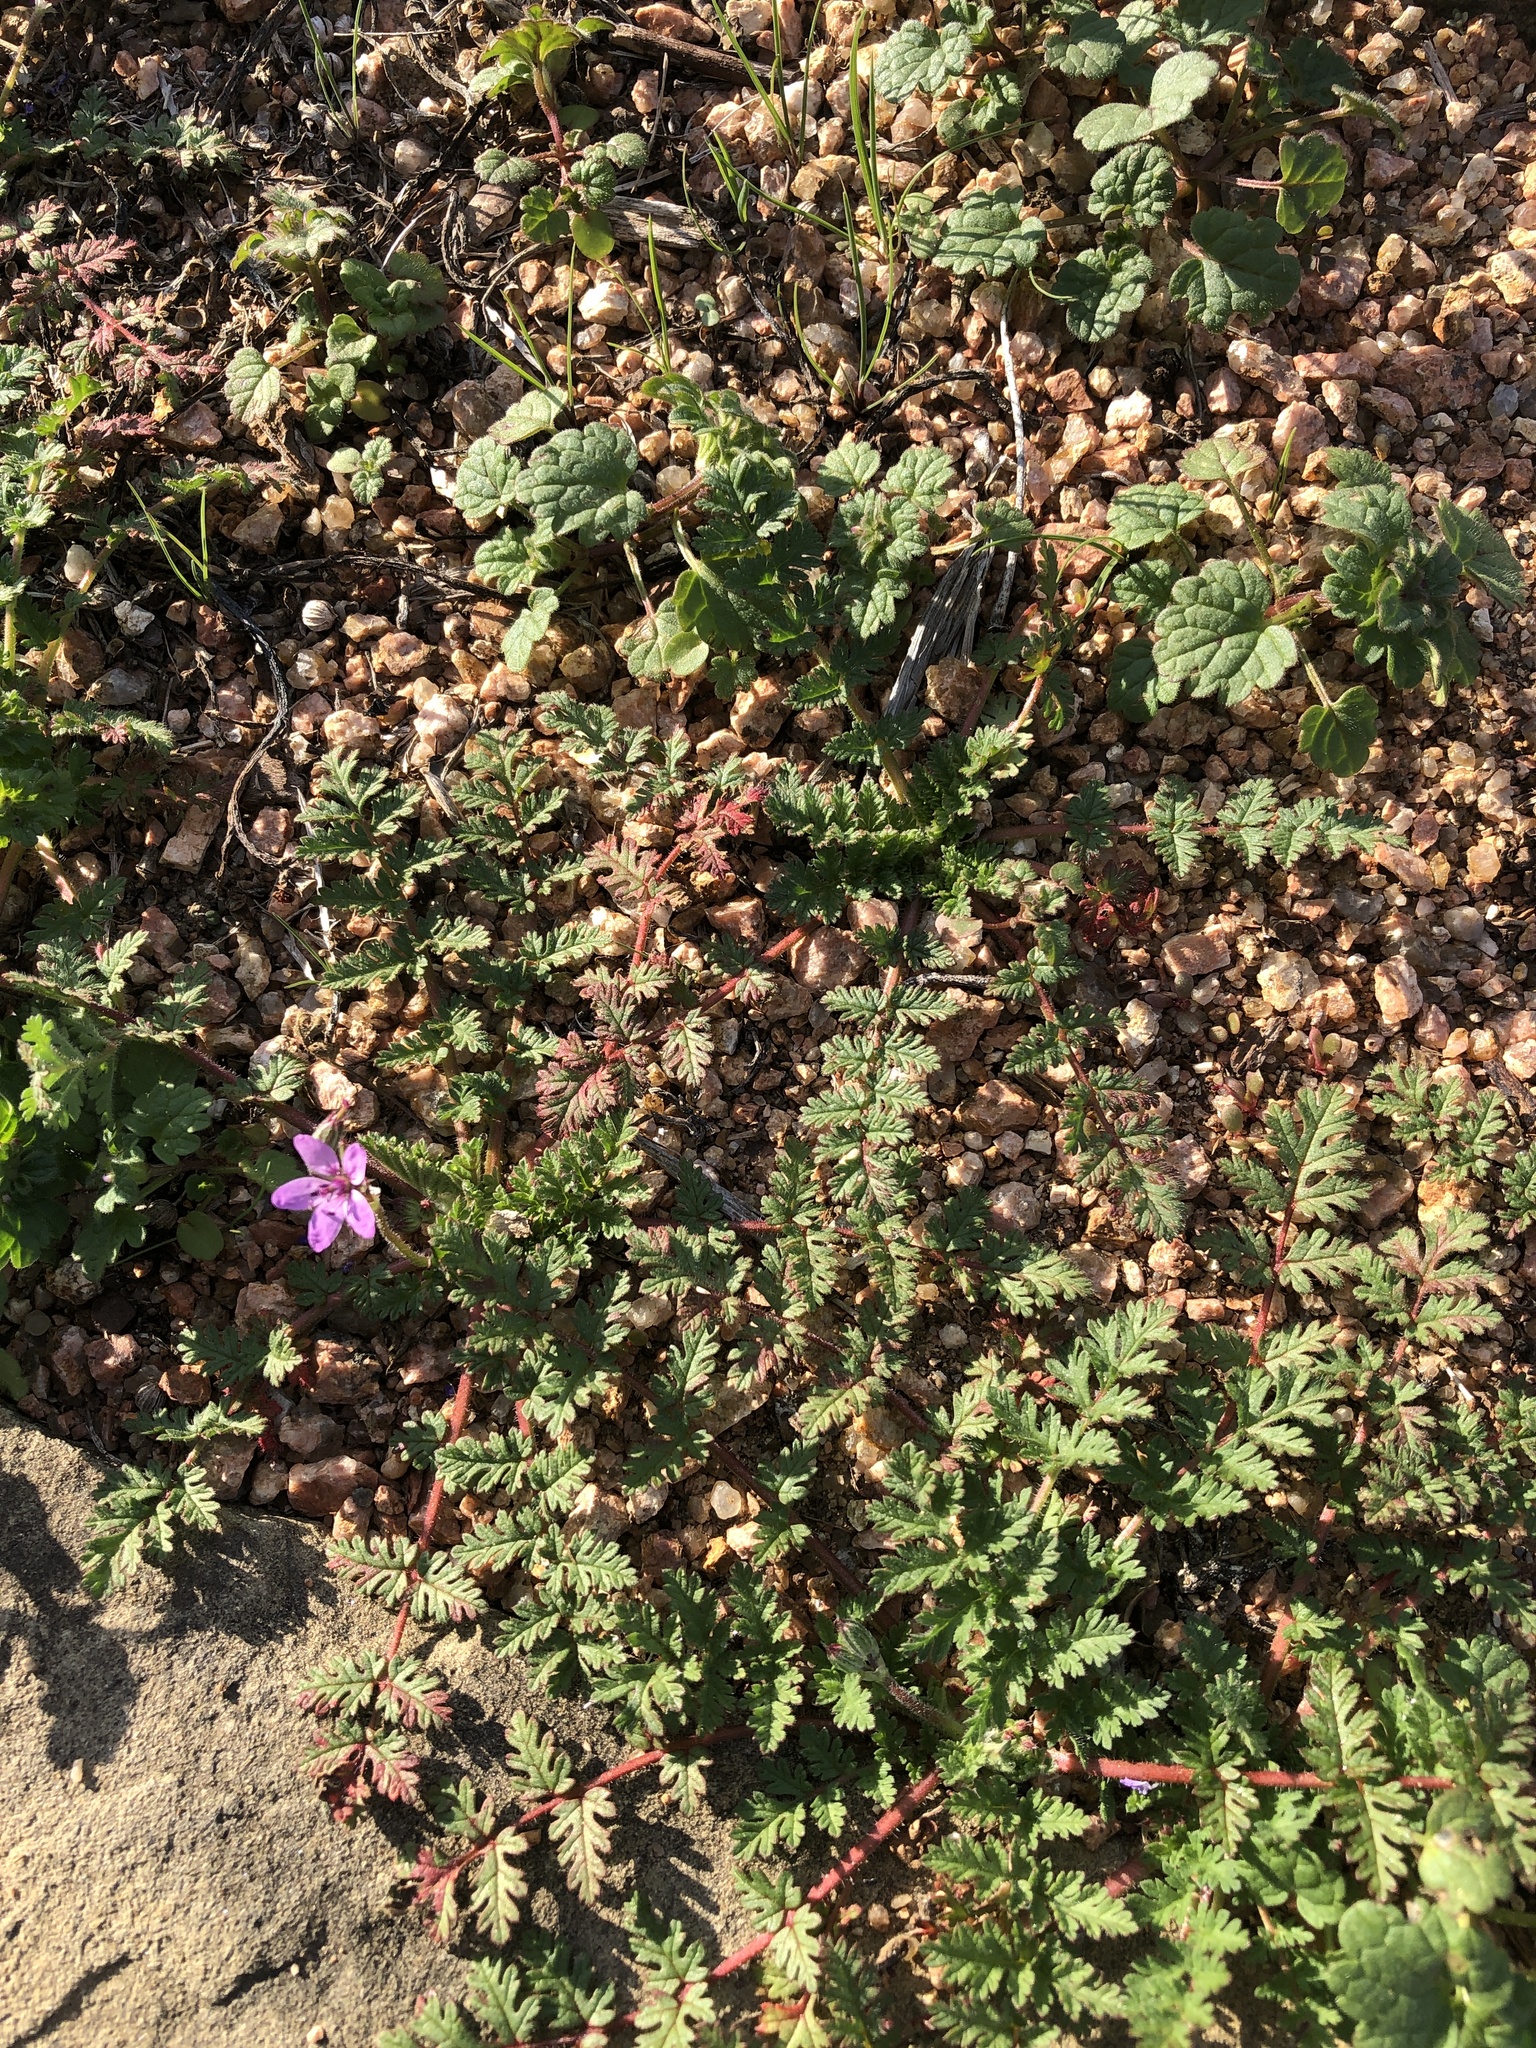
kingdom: Plantae
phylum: Tracheophyta
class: Magnoliopsida
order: Geraniales
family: Geraniaceae
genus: Erodium
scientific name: Erodium cicutarium
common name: Common stork's-bill
